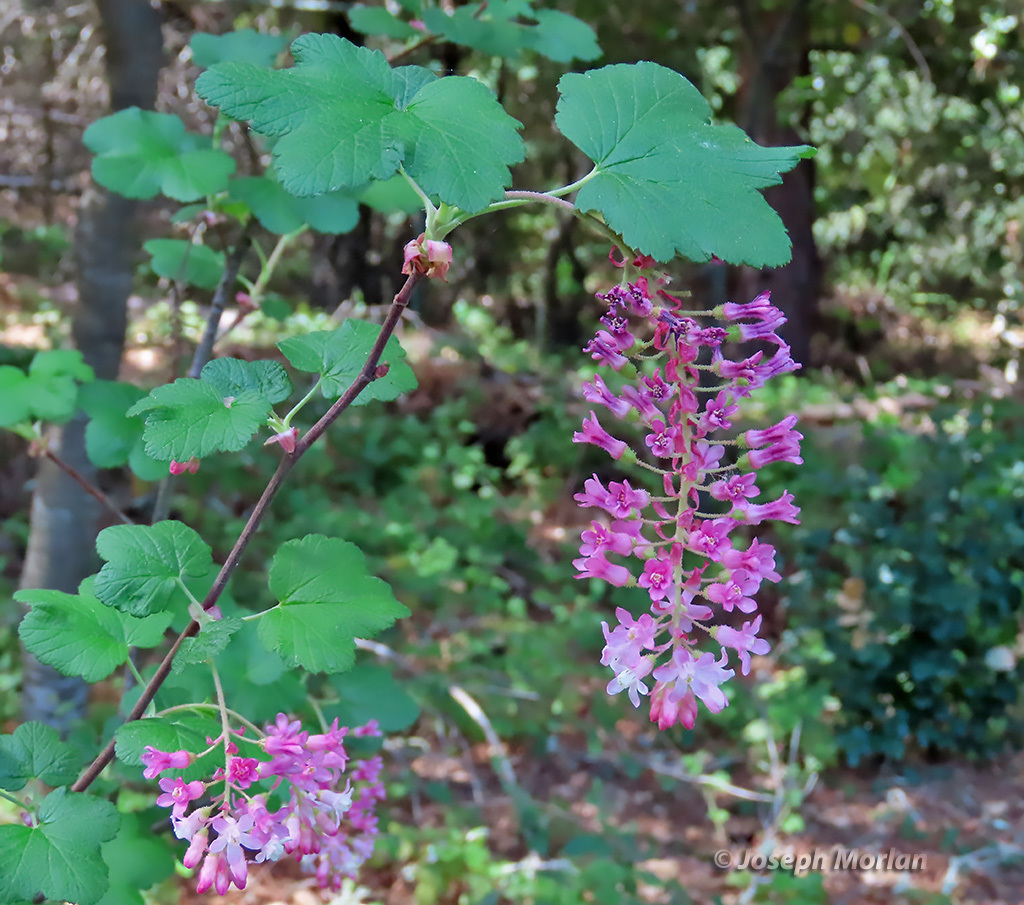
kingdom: Plantae
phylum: Tracheophyta
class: Magnoliopsida
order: Saxifragales
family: Grossulariaceae
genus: Ribes
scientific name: Ribes sanguineum
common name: Flowering currant
